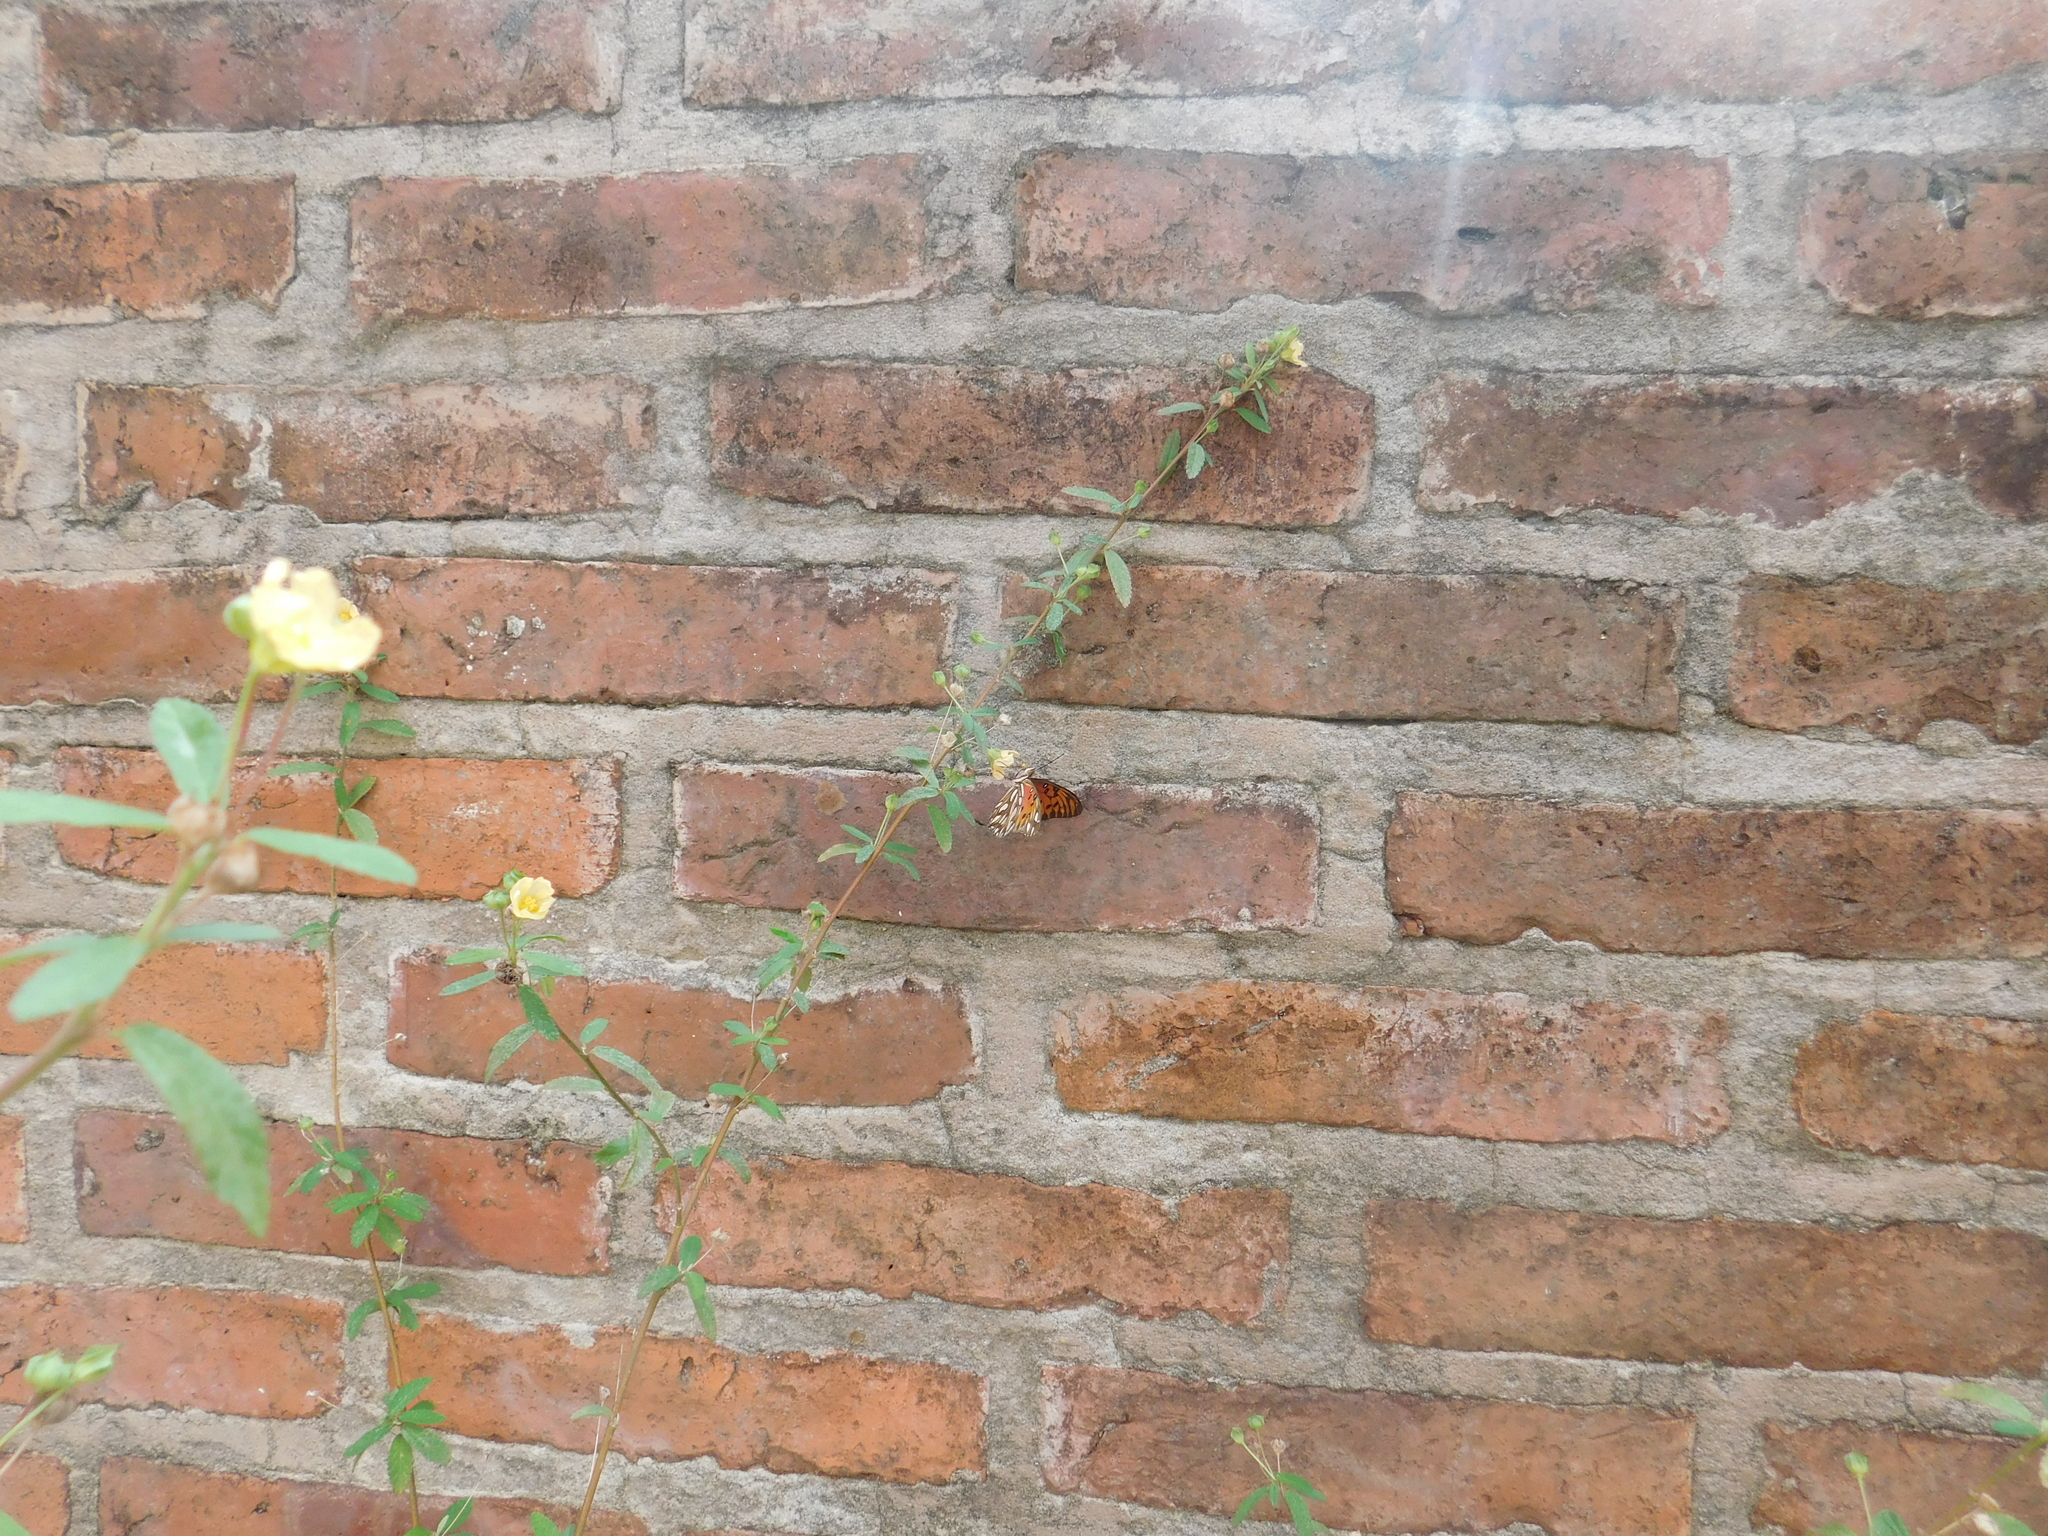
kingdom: Animalia
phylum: Arthropoda
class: Insecta
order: Lepidoptera
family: Nymphalidae
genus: Dione
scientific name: Dione vanillae
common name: Gulf fritillary
